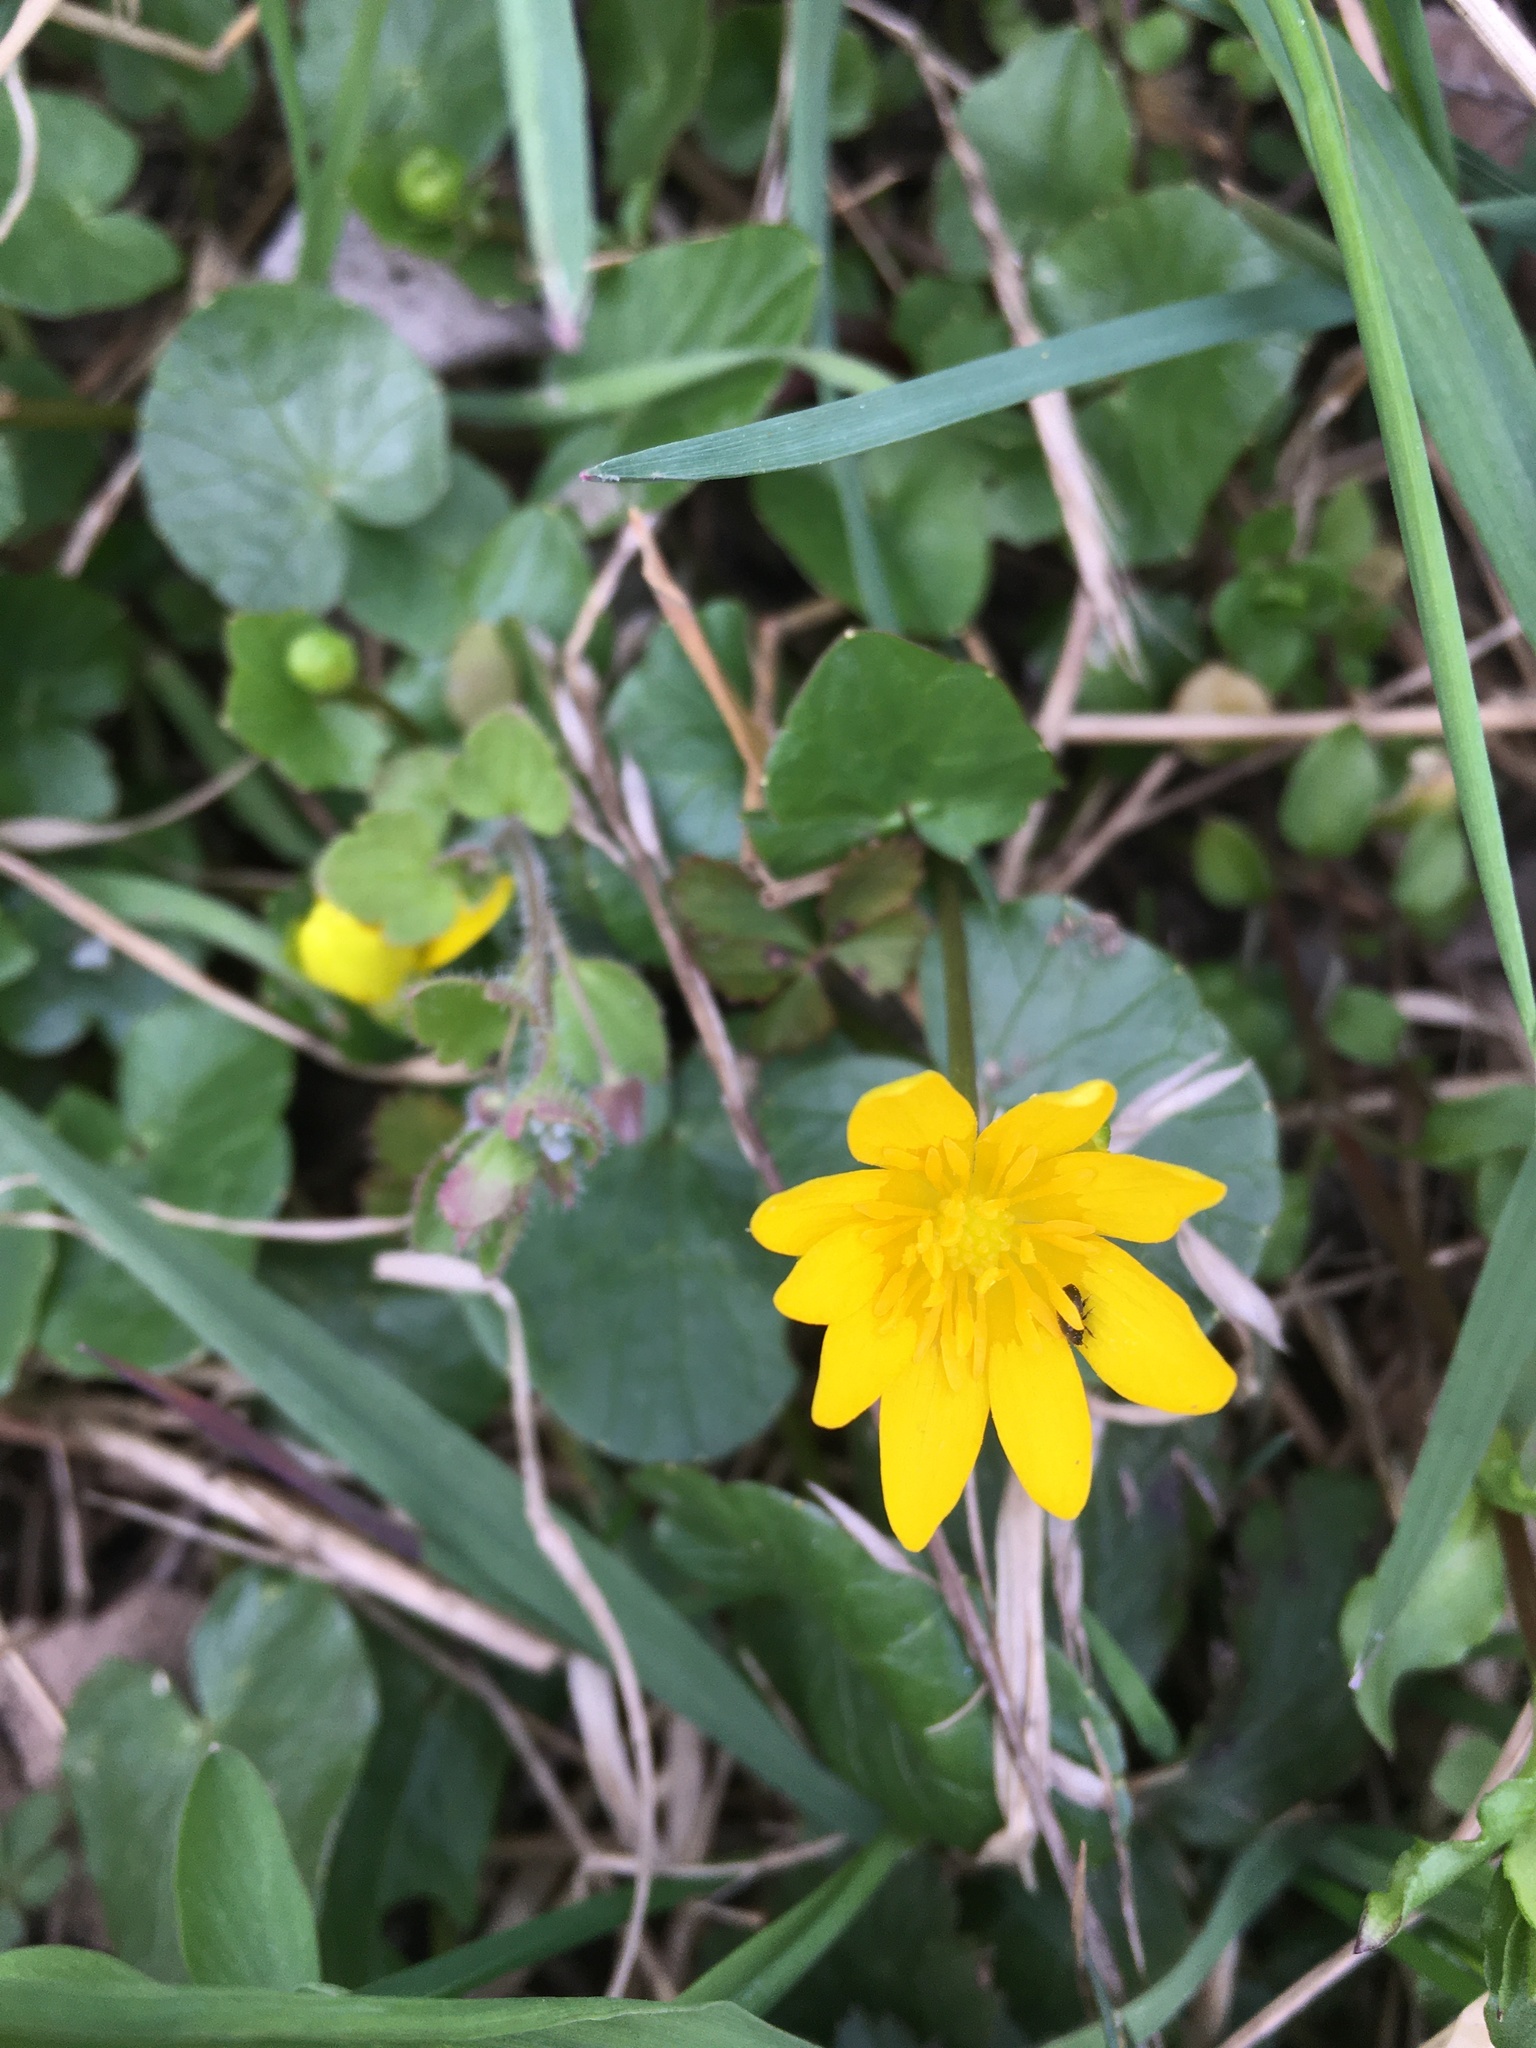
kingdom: Plantae
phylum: Tracheophyta
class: Magnoliopsida
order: Ranunculales
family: Ranunculaceae
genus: Ficaria
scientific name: Ficaria verna
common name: Lesser celandine
